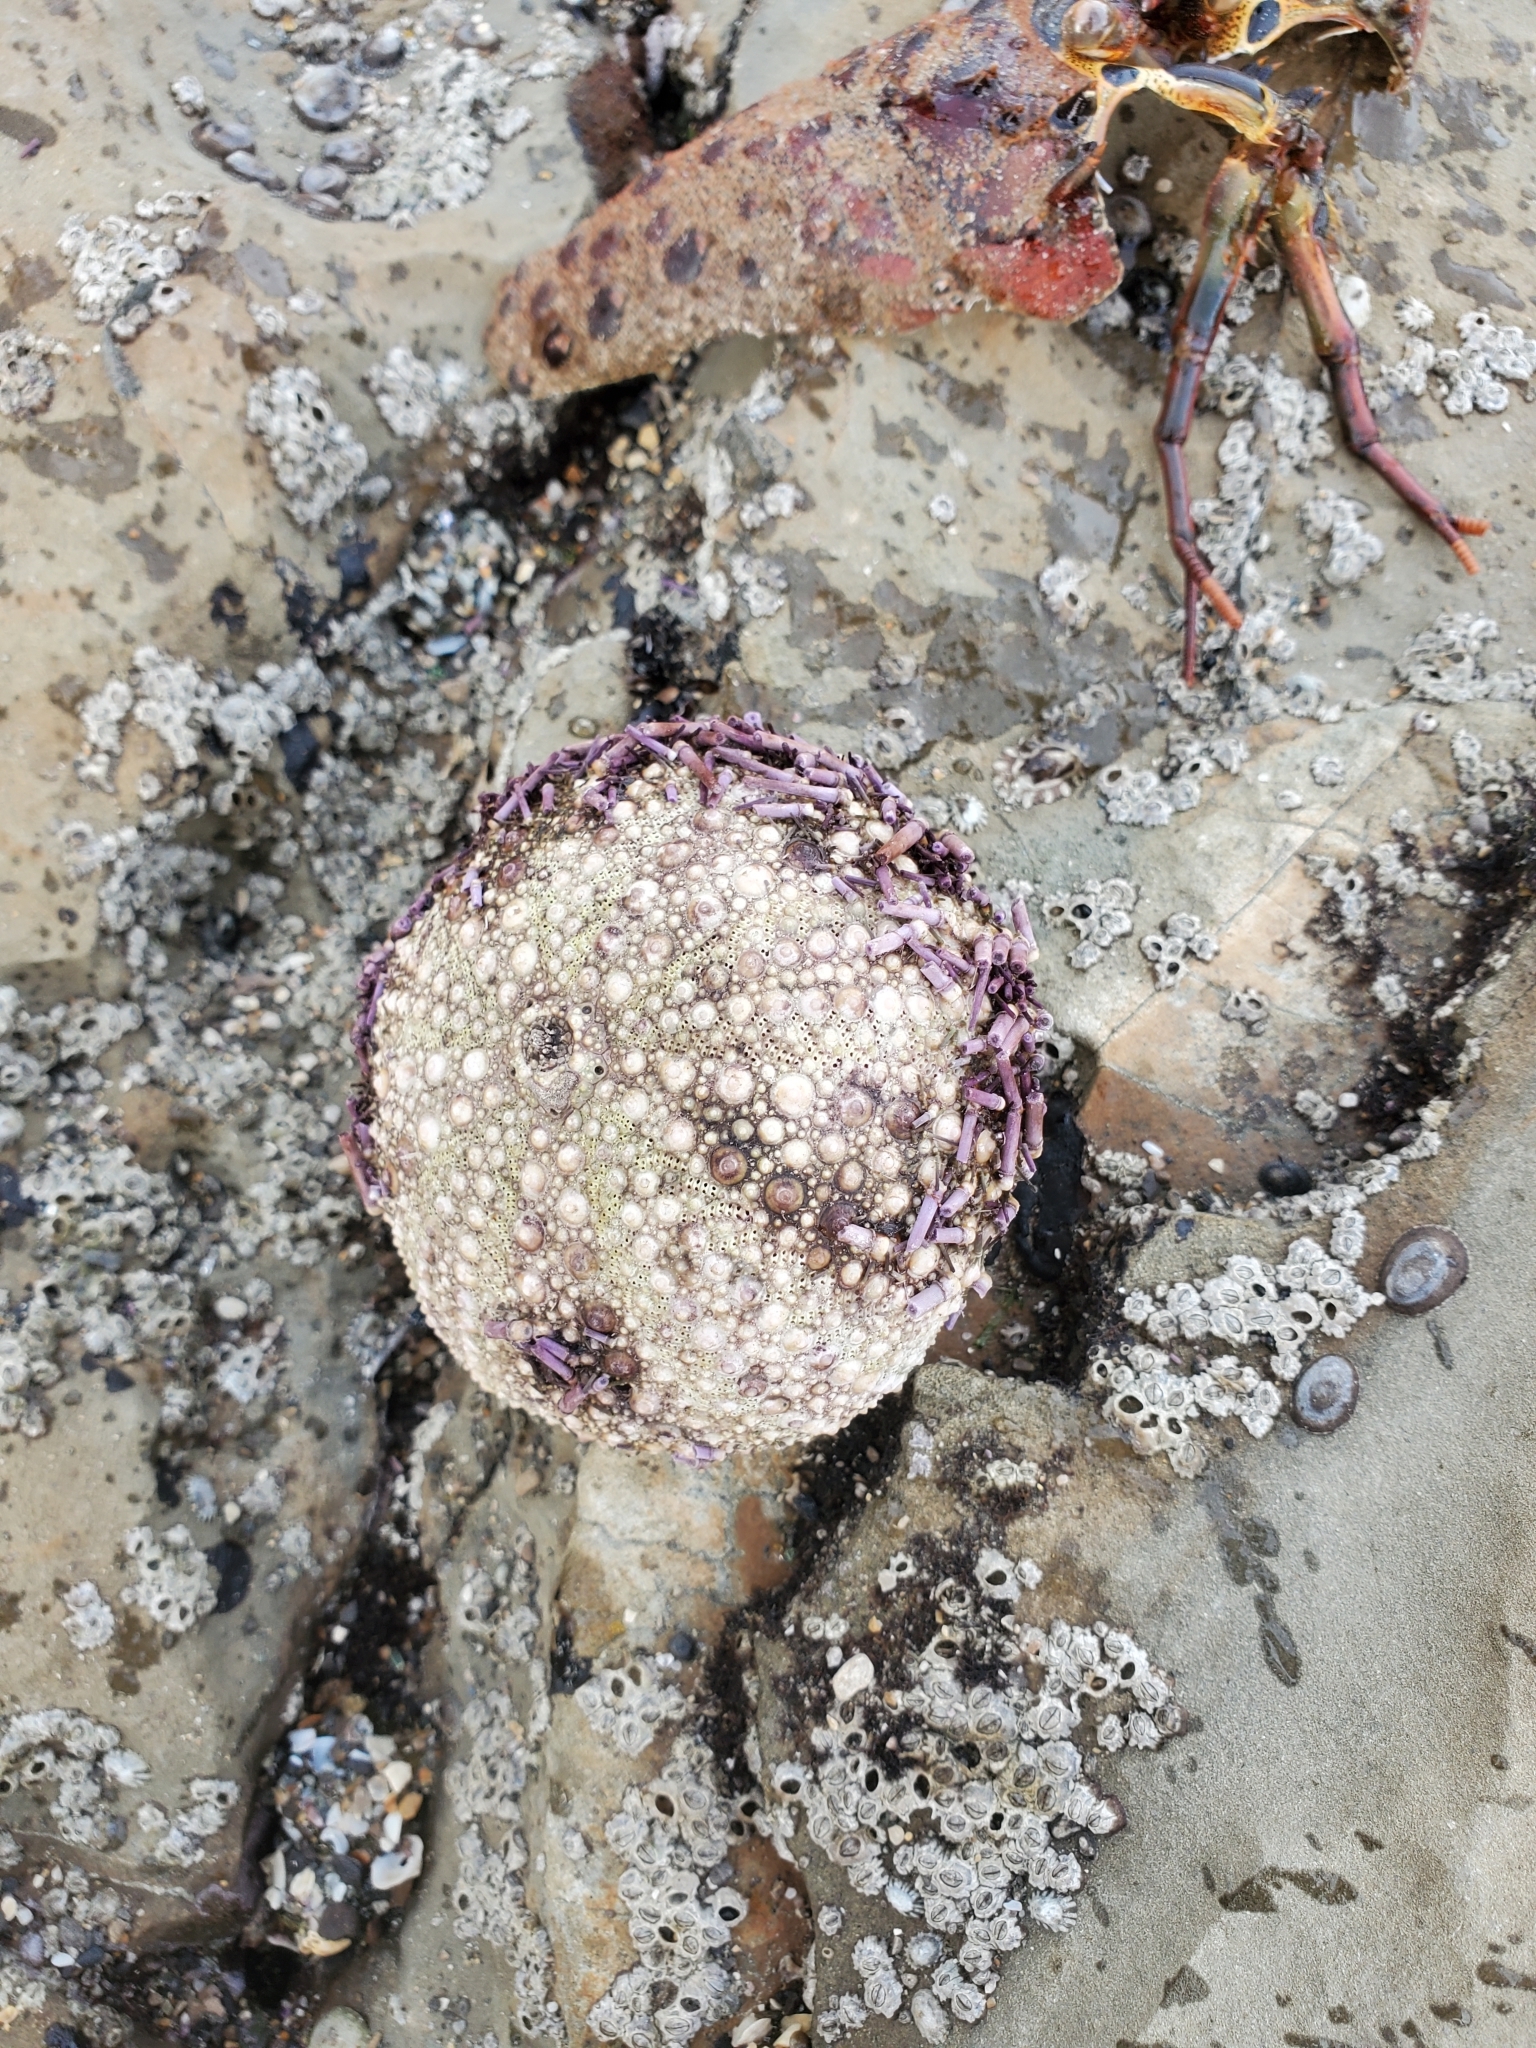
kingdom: Animalia
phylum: Echinodermata
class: Echinoidea
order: Camarodonta
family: Strongylocentrotidae
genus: Strongylocentrotus
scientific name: Strongylocentrotus purpuratus
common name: Purple sea urchin
